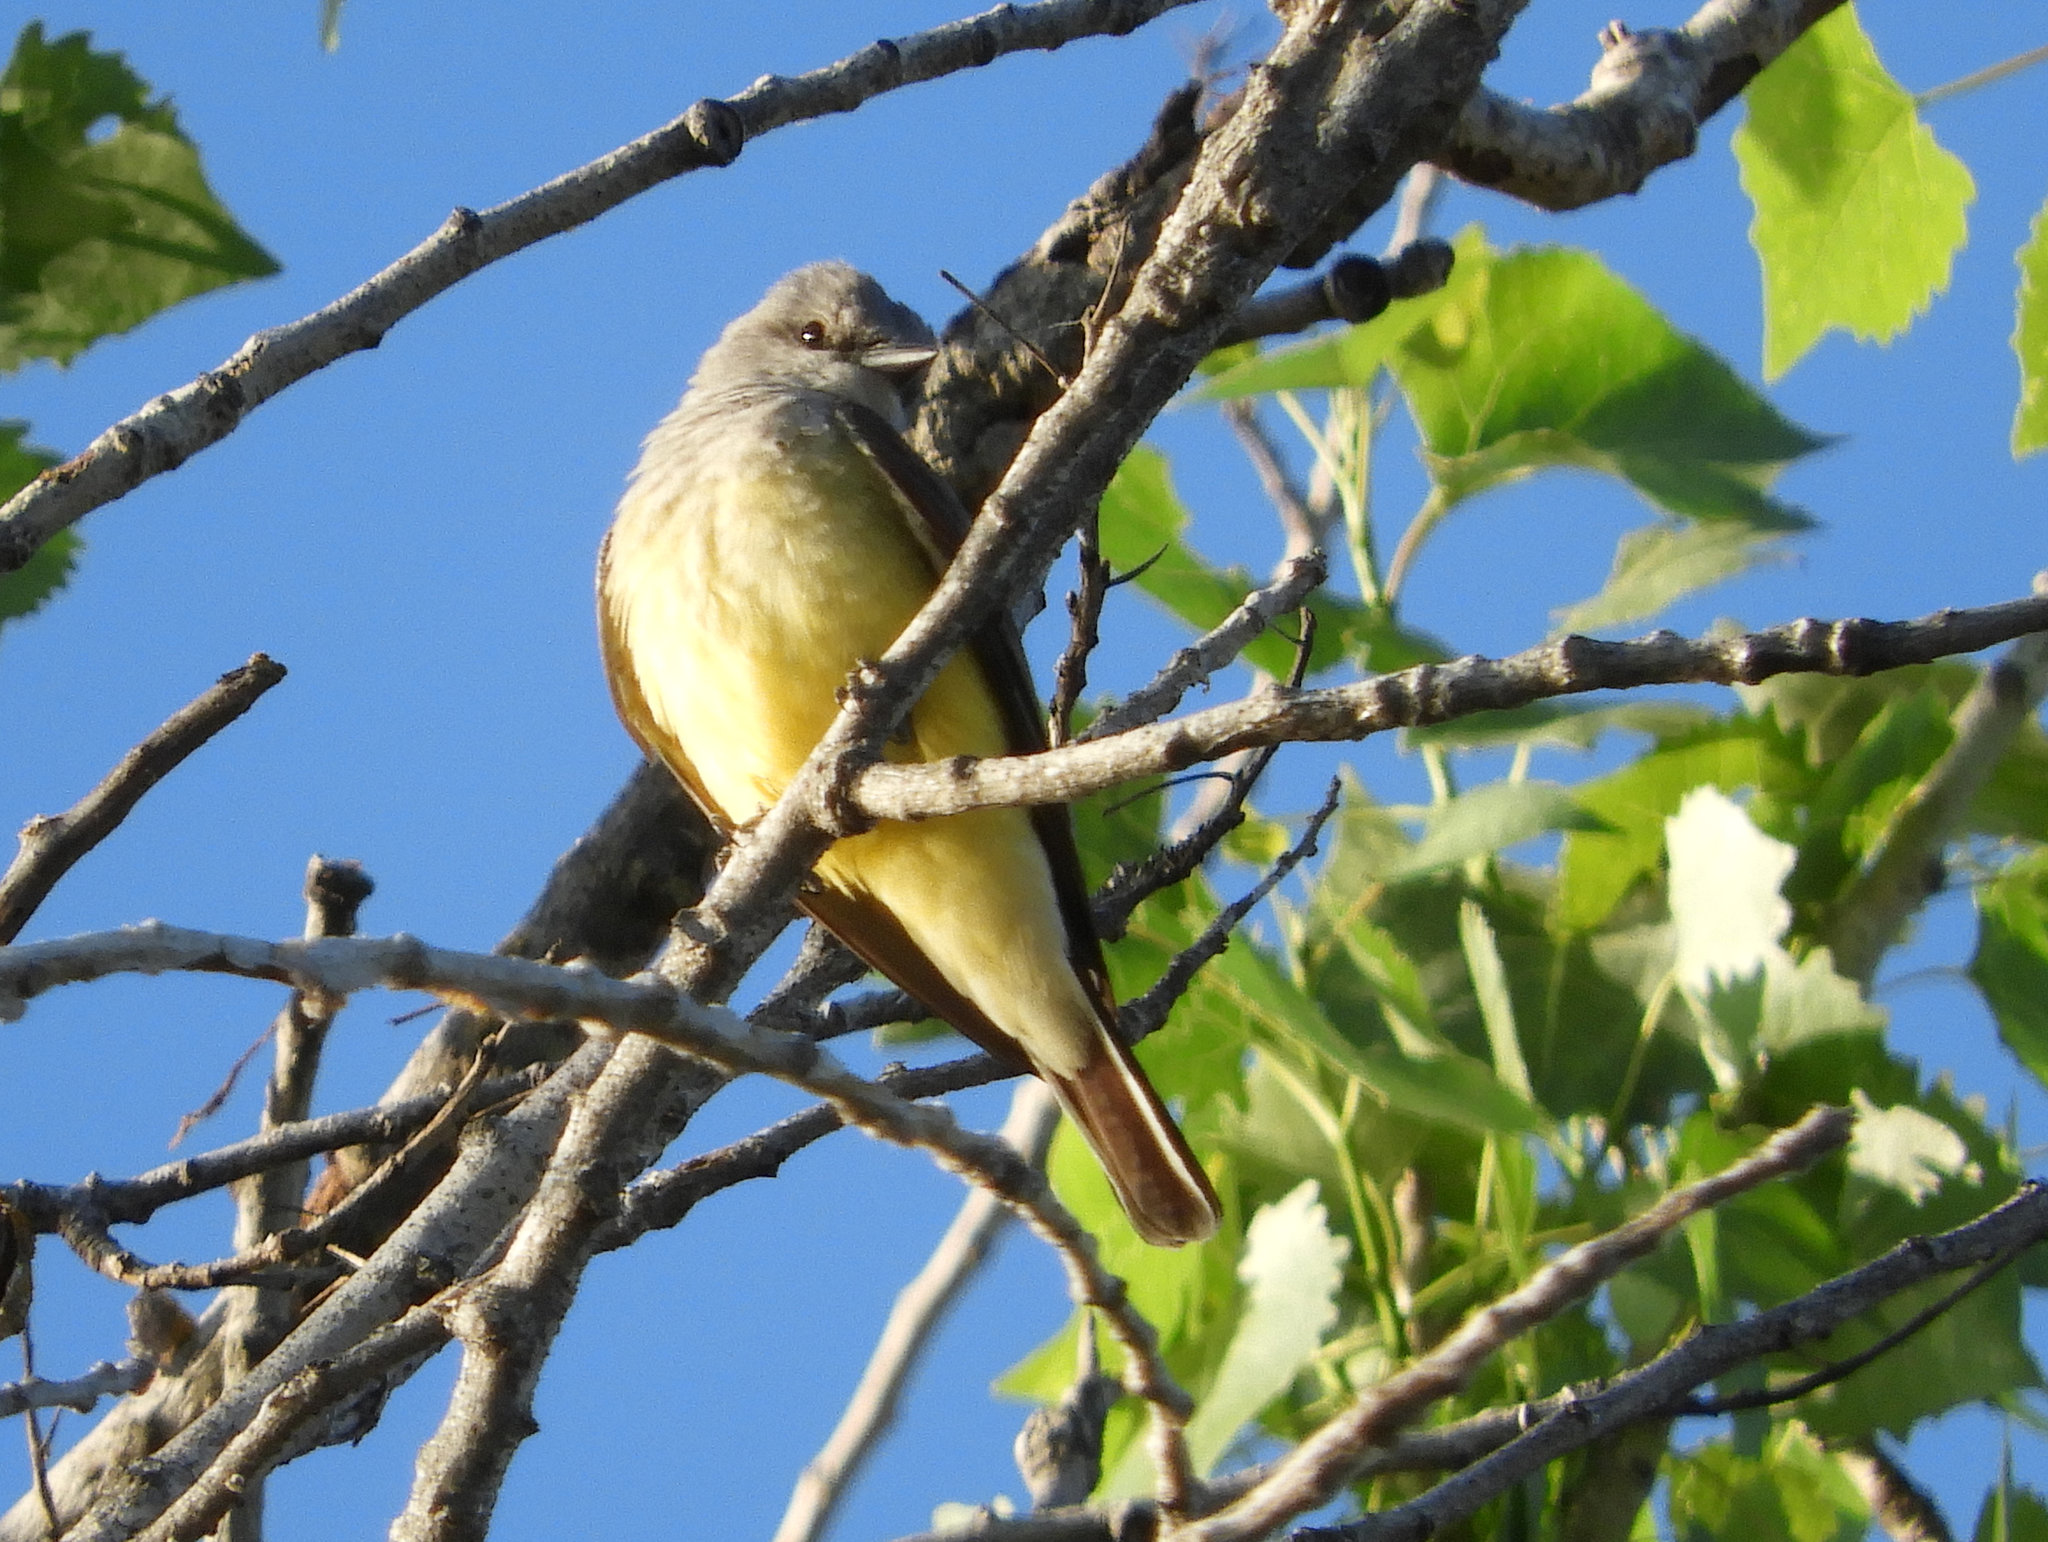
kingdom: Animalia
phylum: Chordata
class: Aves
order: Passeriformes
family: Tyrannidae
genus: Tyrannus
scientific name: Tyrannus verticalis
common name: Western kingbird
